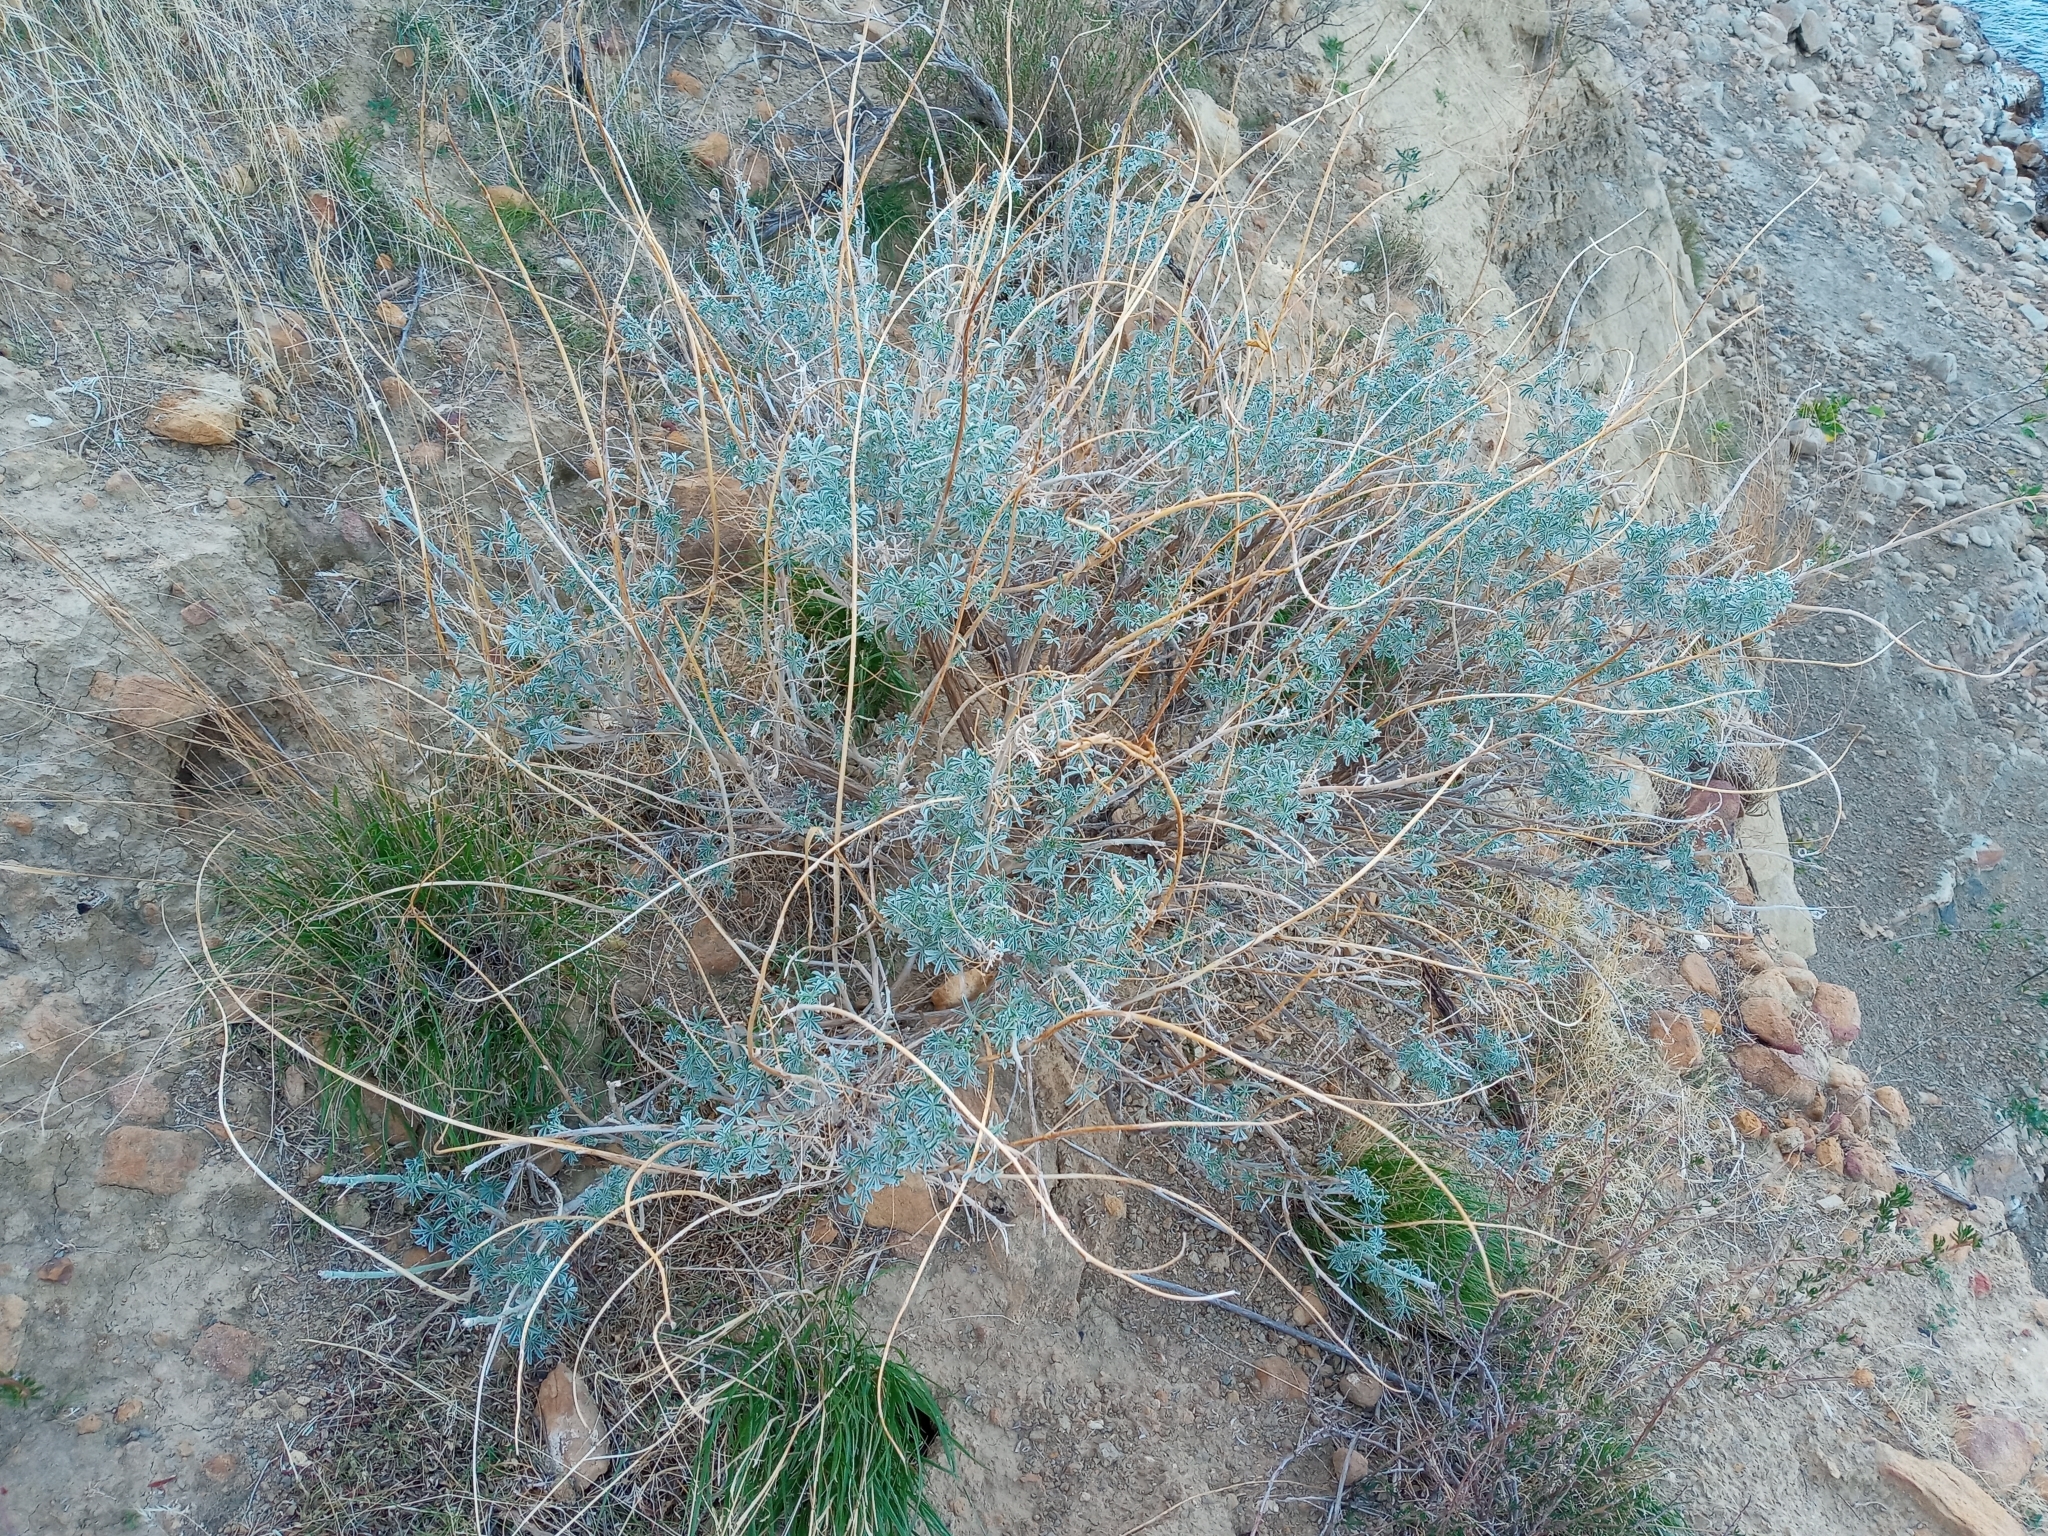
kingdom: Plantae
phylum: Tracheophyta
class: Magnoliopsida
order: Fabales
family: Fabaceae
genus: Lupinus
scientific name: Lupinus albifrons
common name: Foothill lupine
